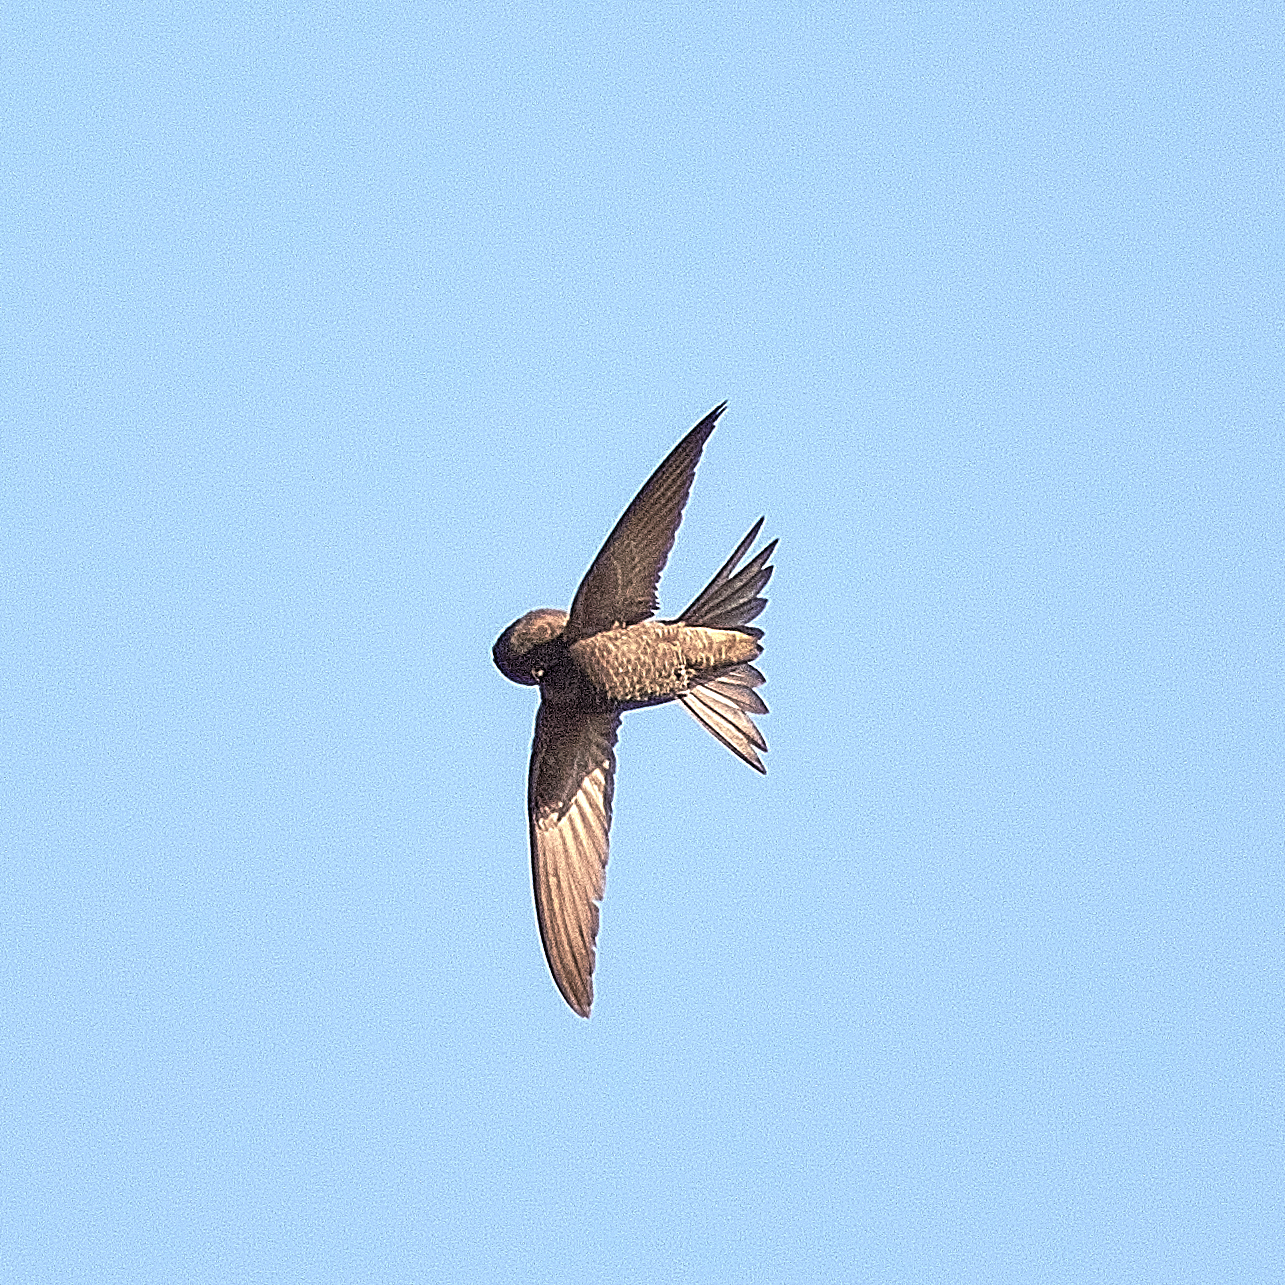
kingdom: Animalia
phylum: Chordata
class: Aves
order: Apodiformes
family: Apodidae
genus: Apus
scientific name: Apus apus
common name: Common swift
